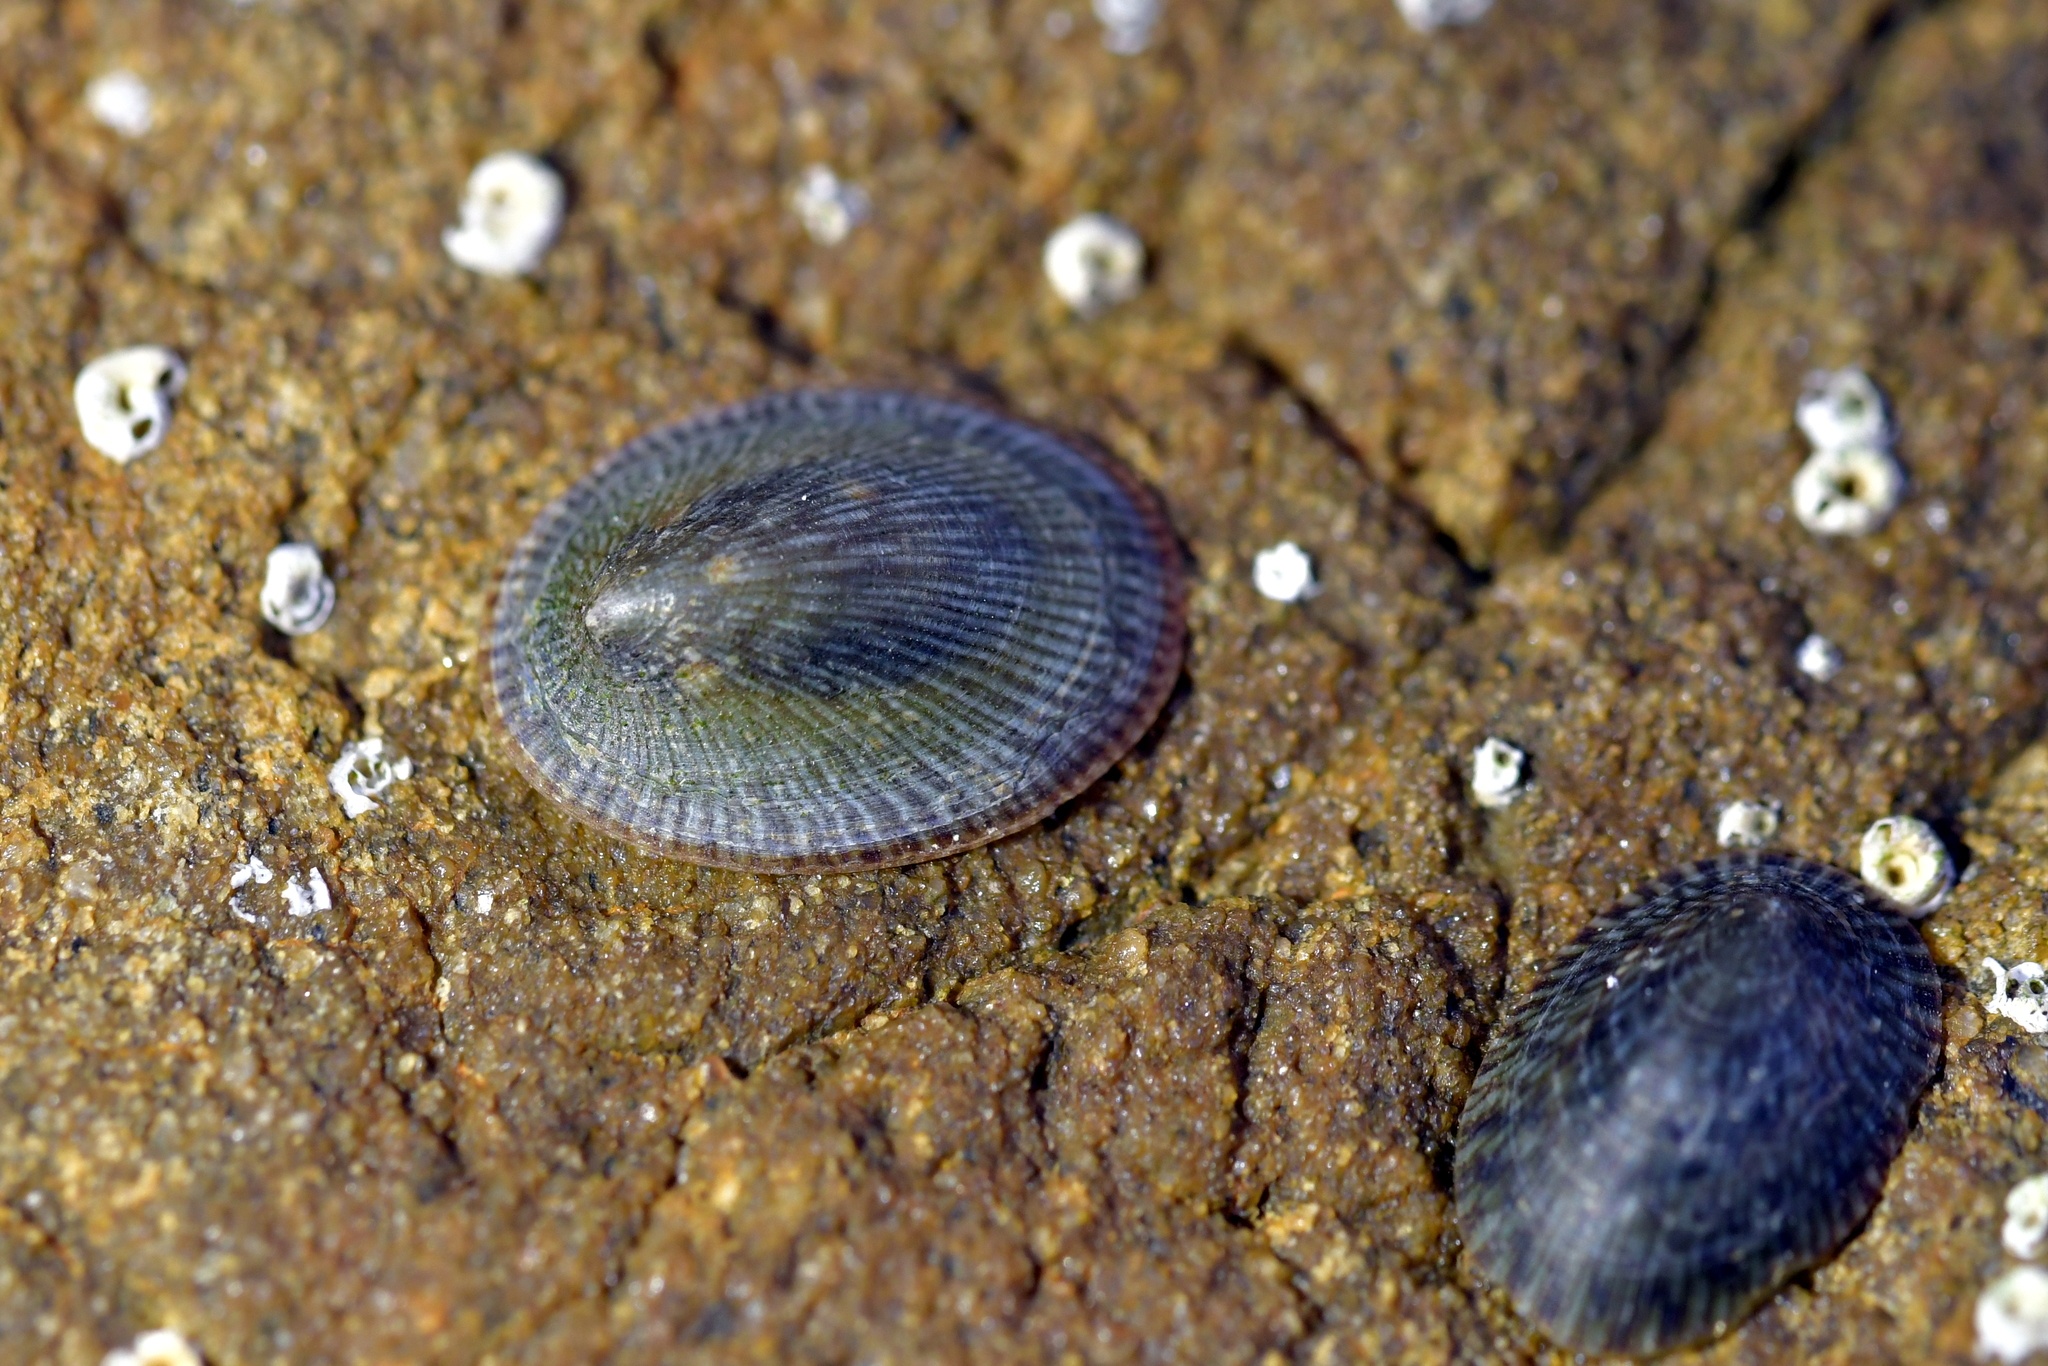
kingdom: Animalia
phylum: Mollusca
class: Gastropoda
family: Lottiidae
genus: Notoacmea
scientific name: Notoacmea
